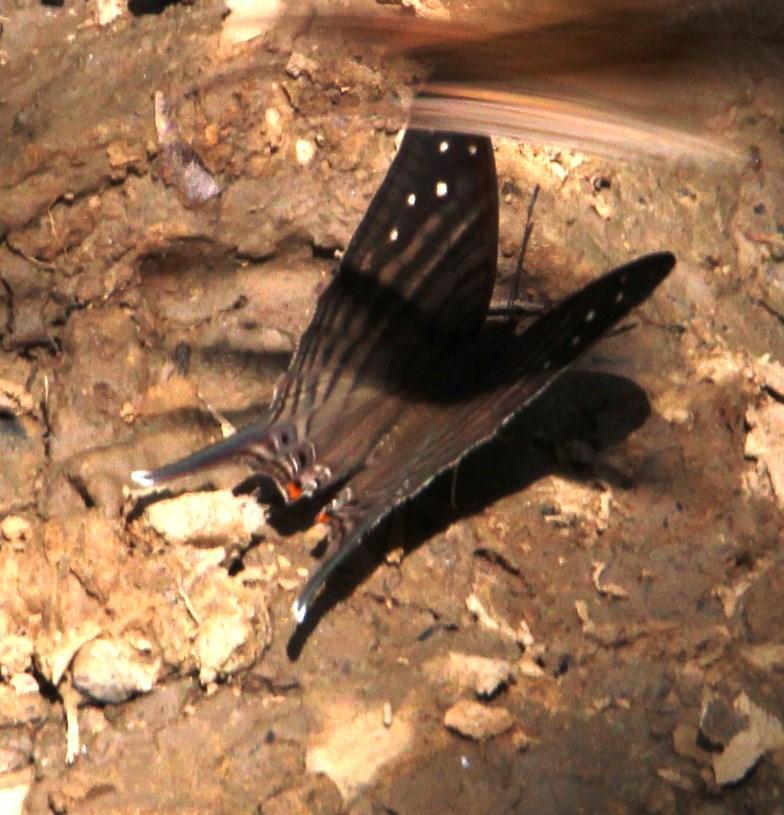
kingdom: Animalia
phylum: Arthropoda
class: Insecta
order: Lepidoptera
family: Nymphalidae
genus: Marpesia
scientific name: Marpesia egina
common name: Egina daggerwing
